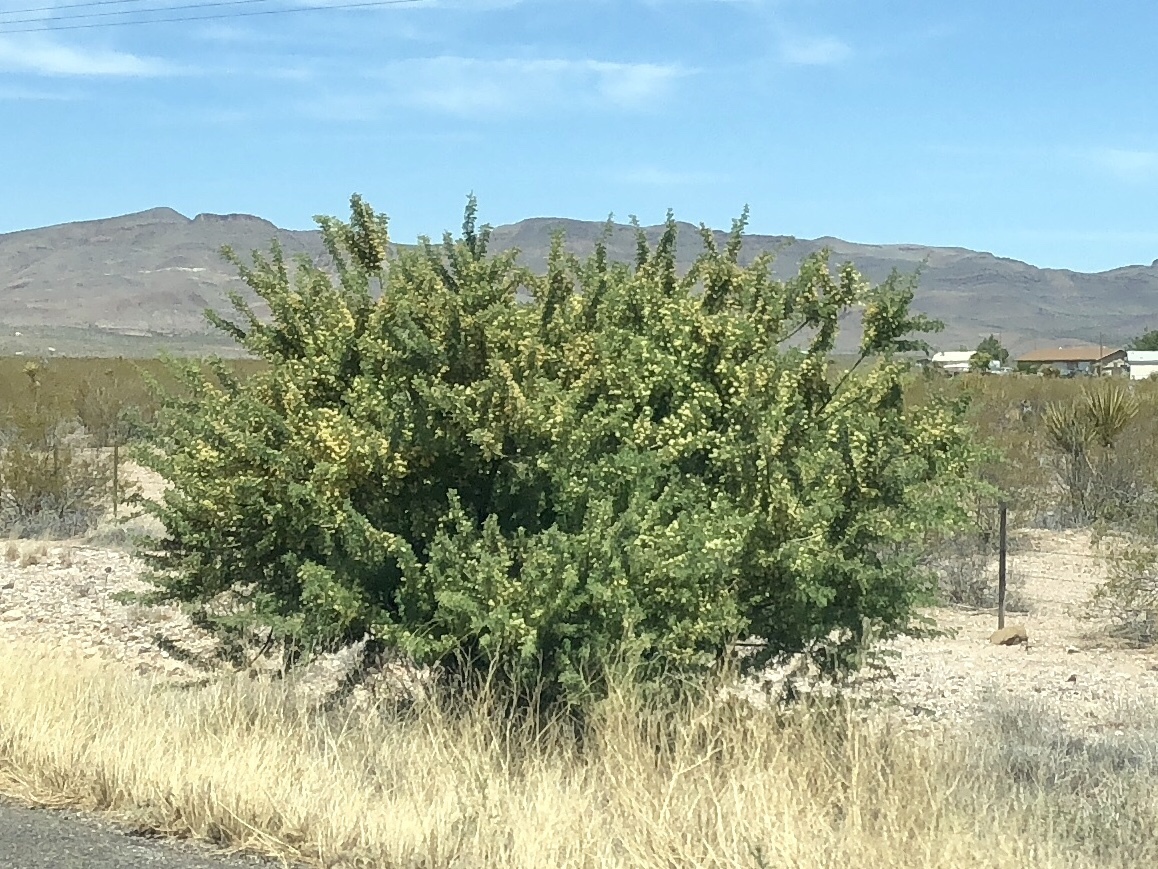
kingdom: Plantae
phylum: Tracheophyta
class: Magnoliopsida
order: Fabales
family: Fabaceae
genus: Senegalia
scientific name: Senegalia greggii
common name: Texas-mimosa
